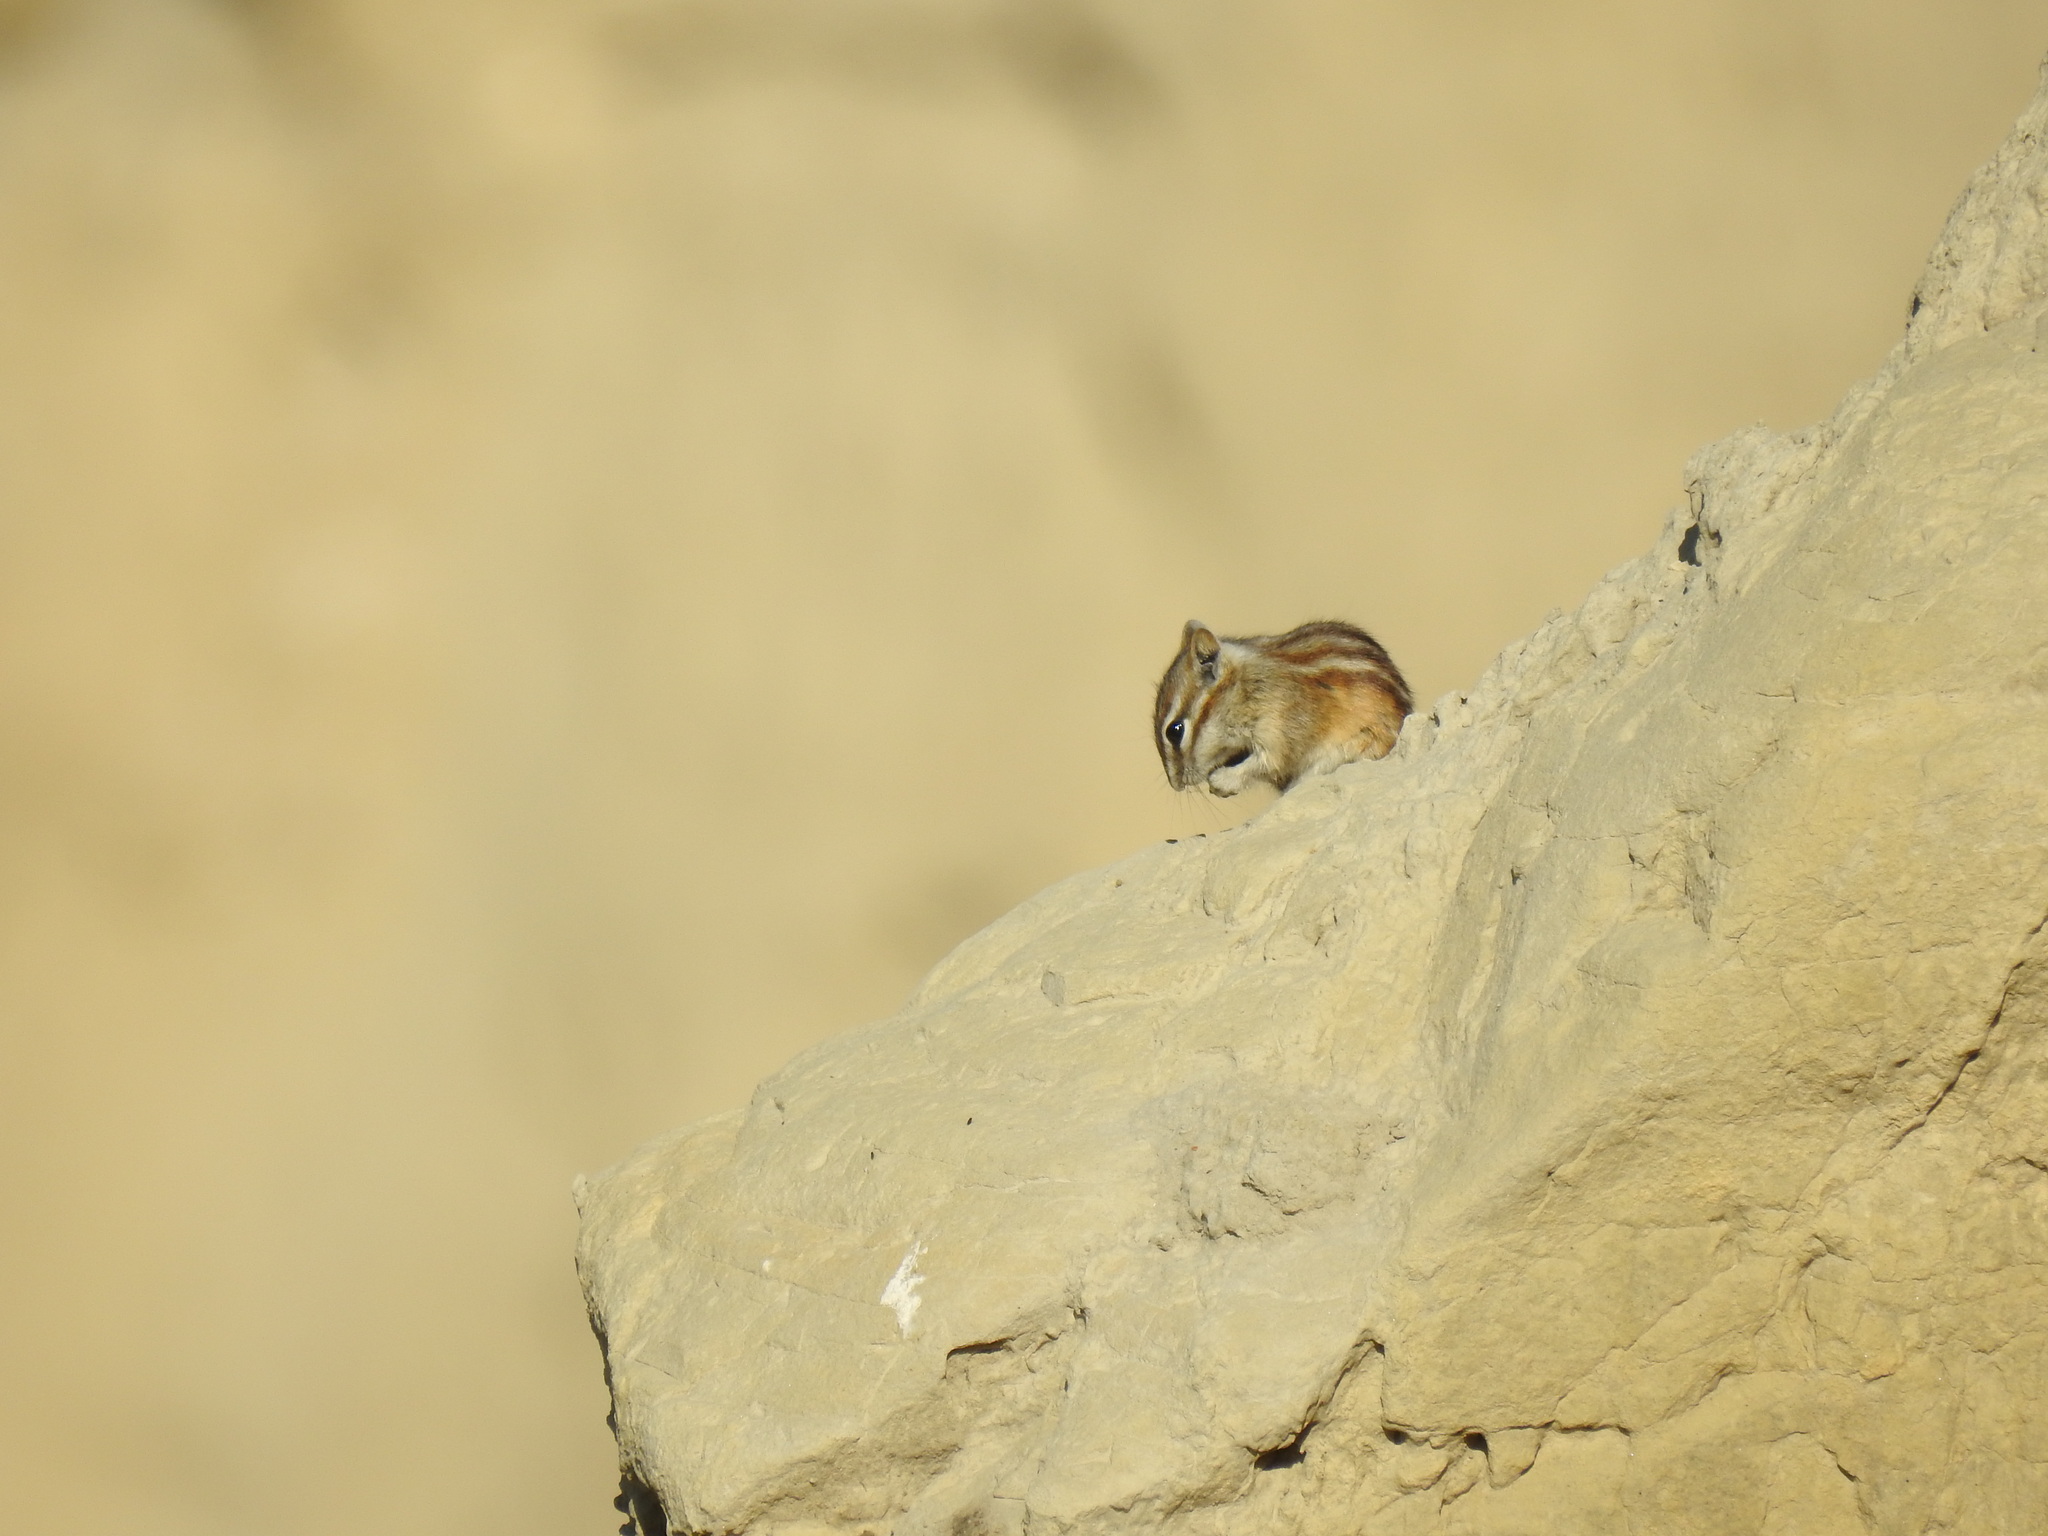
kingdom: Animalia
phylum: Chordata
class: Mammalia
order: Rodentia
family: Sciuridae
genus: Tamias
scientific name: Tamias minimus
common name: Least chipmunk
